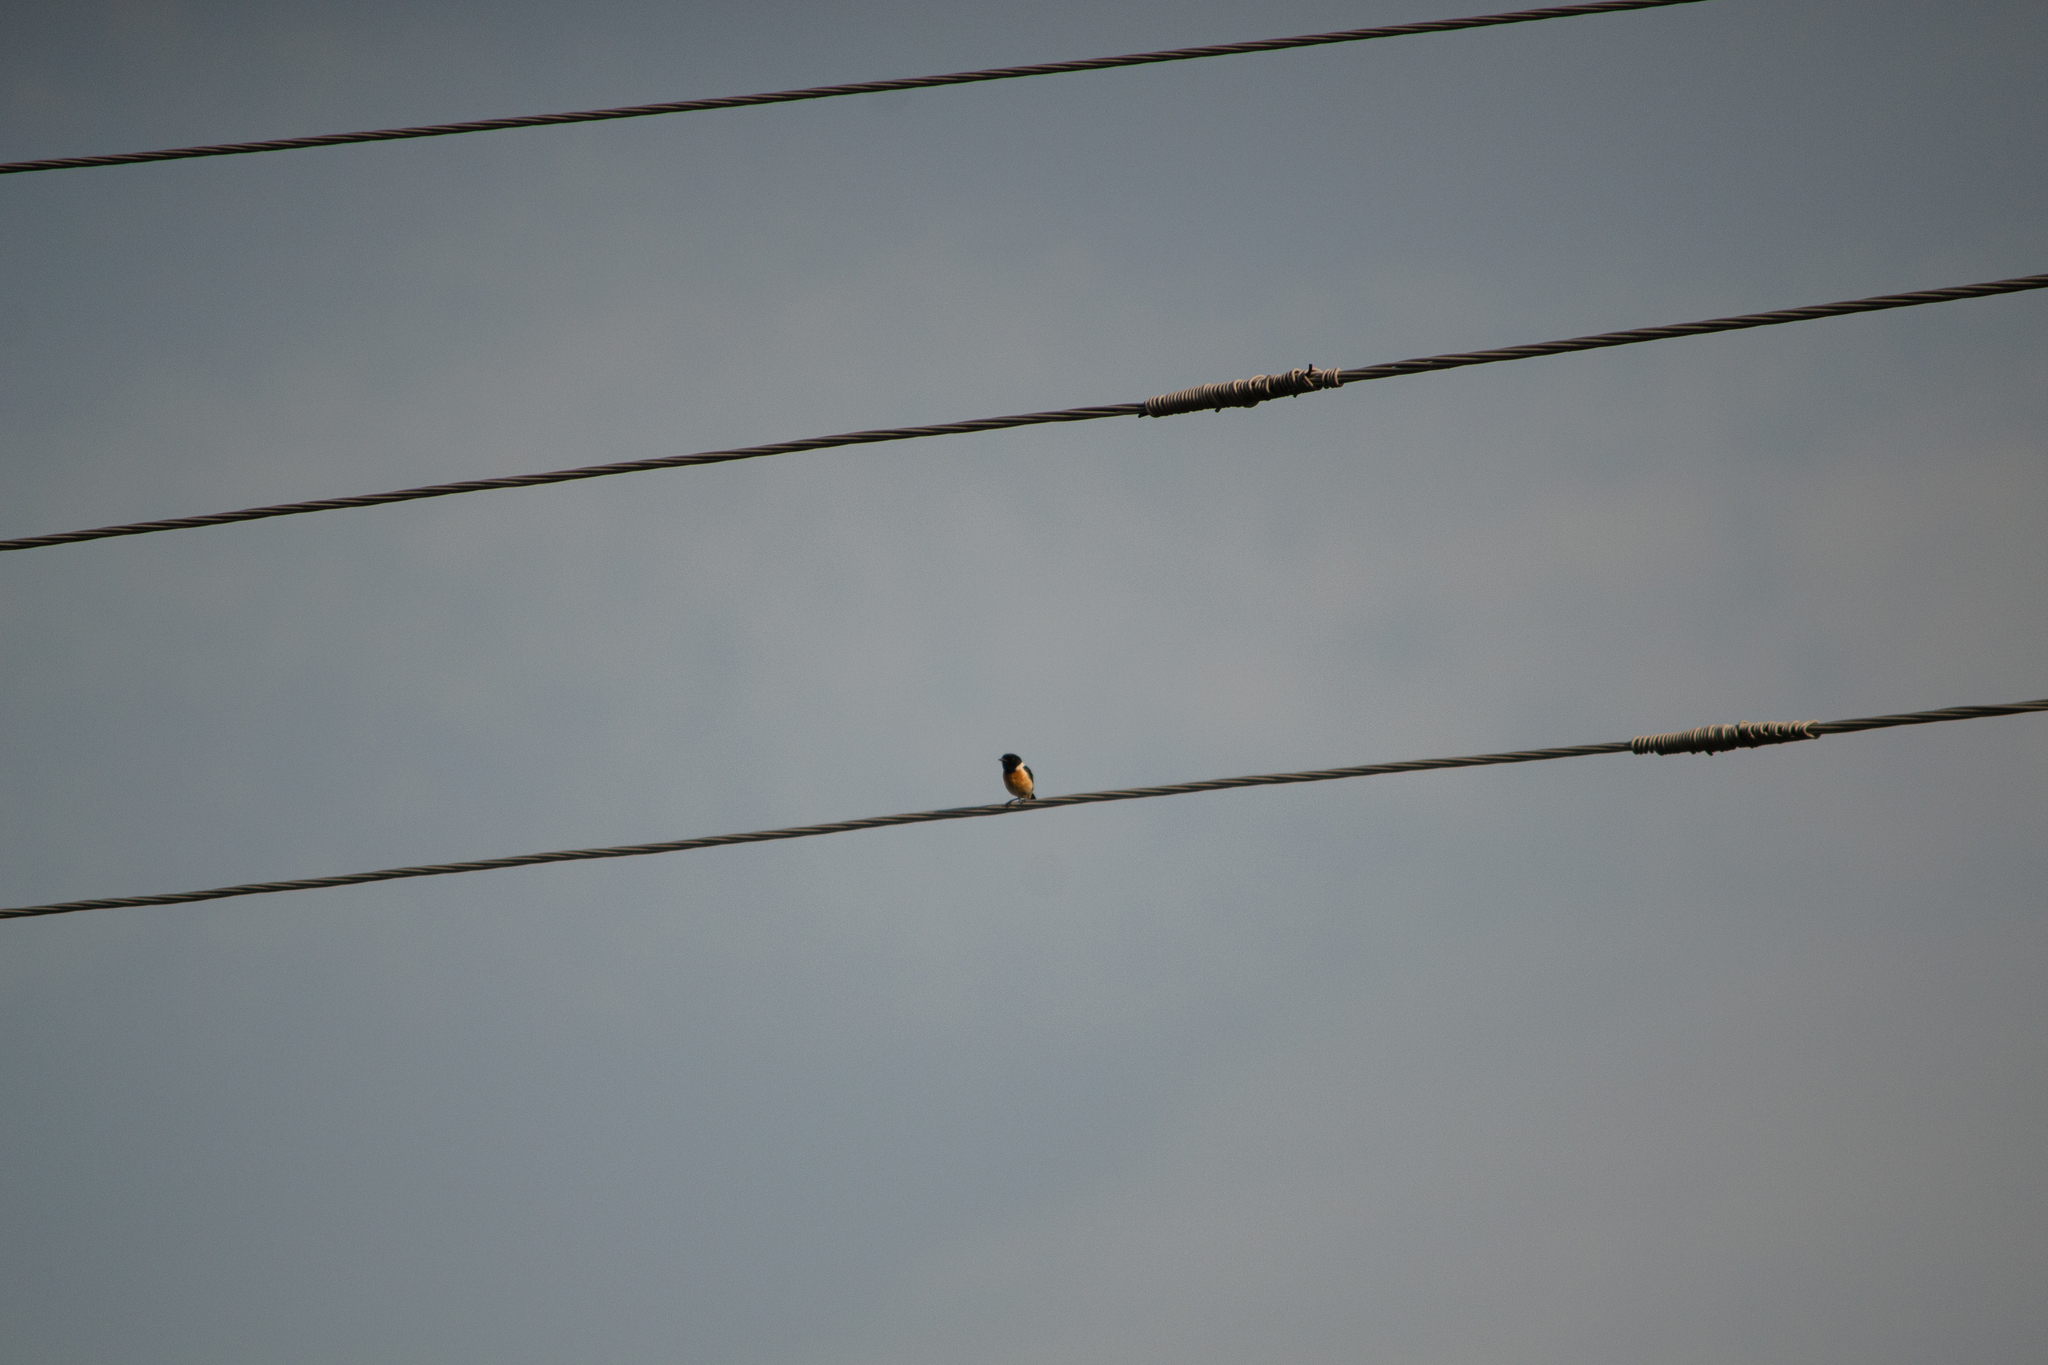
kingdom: Animalia
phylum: Chordata
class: Aves
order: Passeriformes
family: Muscicapidae
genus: Saxicola
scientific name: Saxicola maurus
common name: Siberian stonechat
